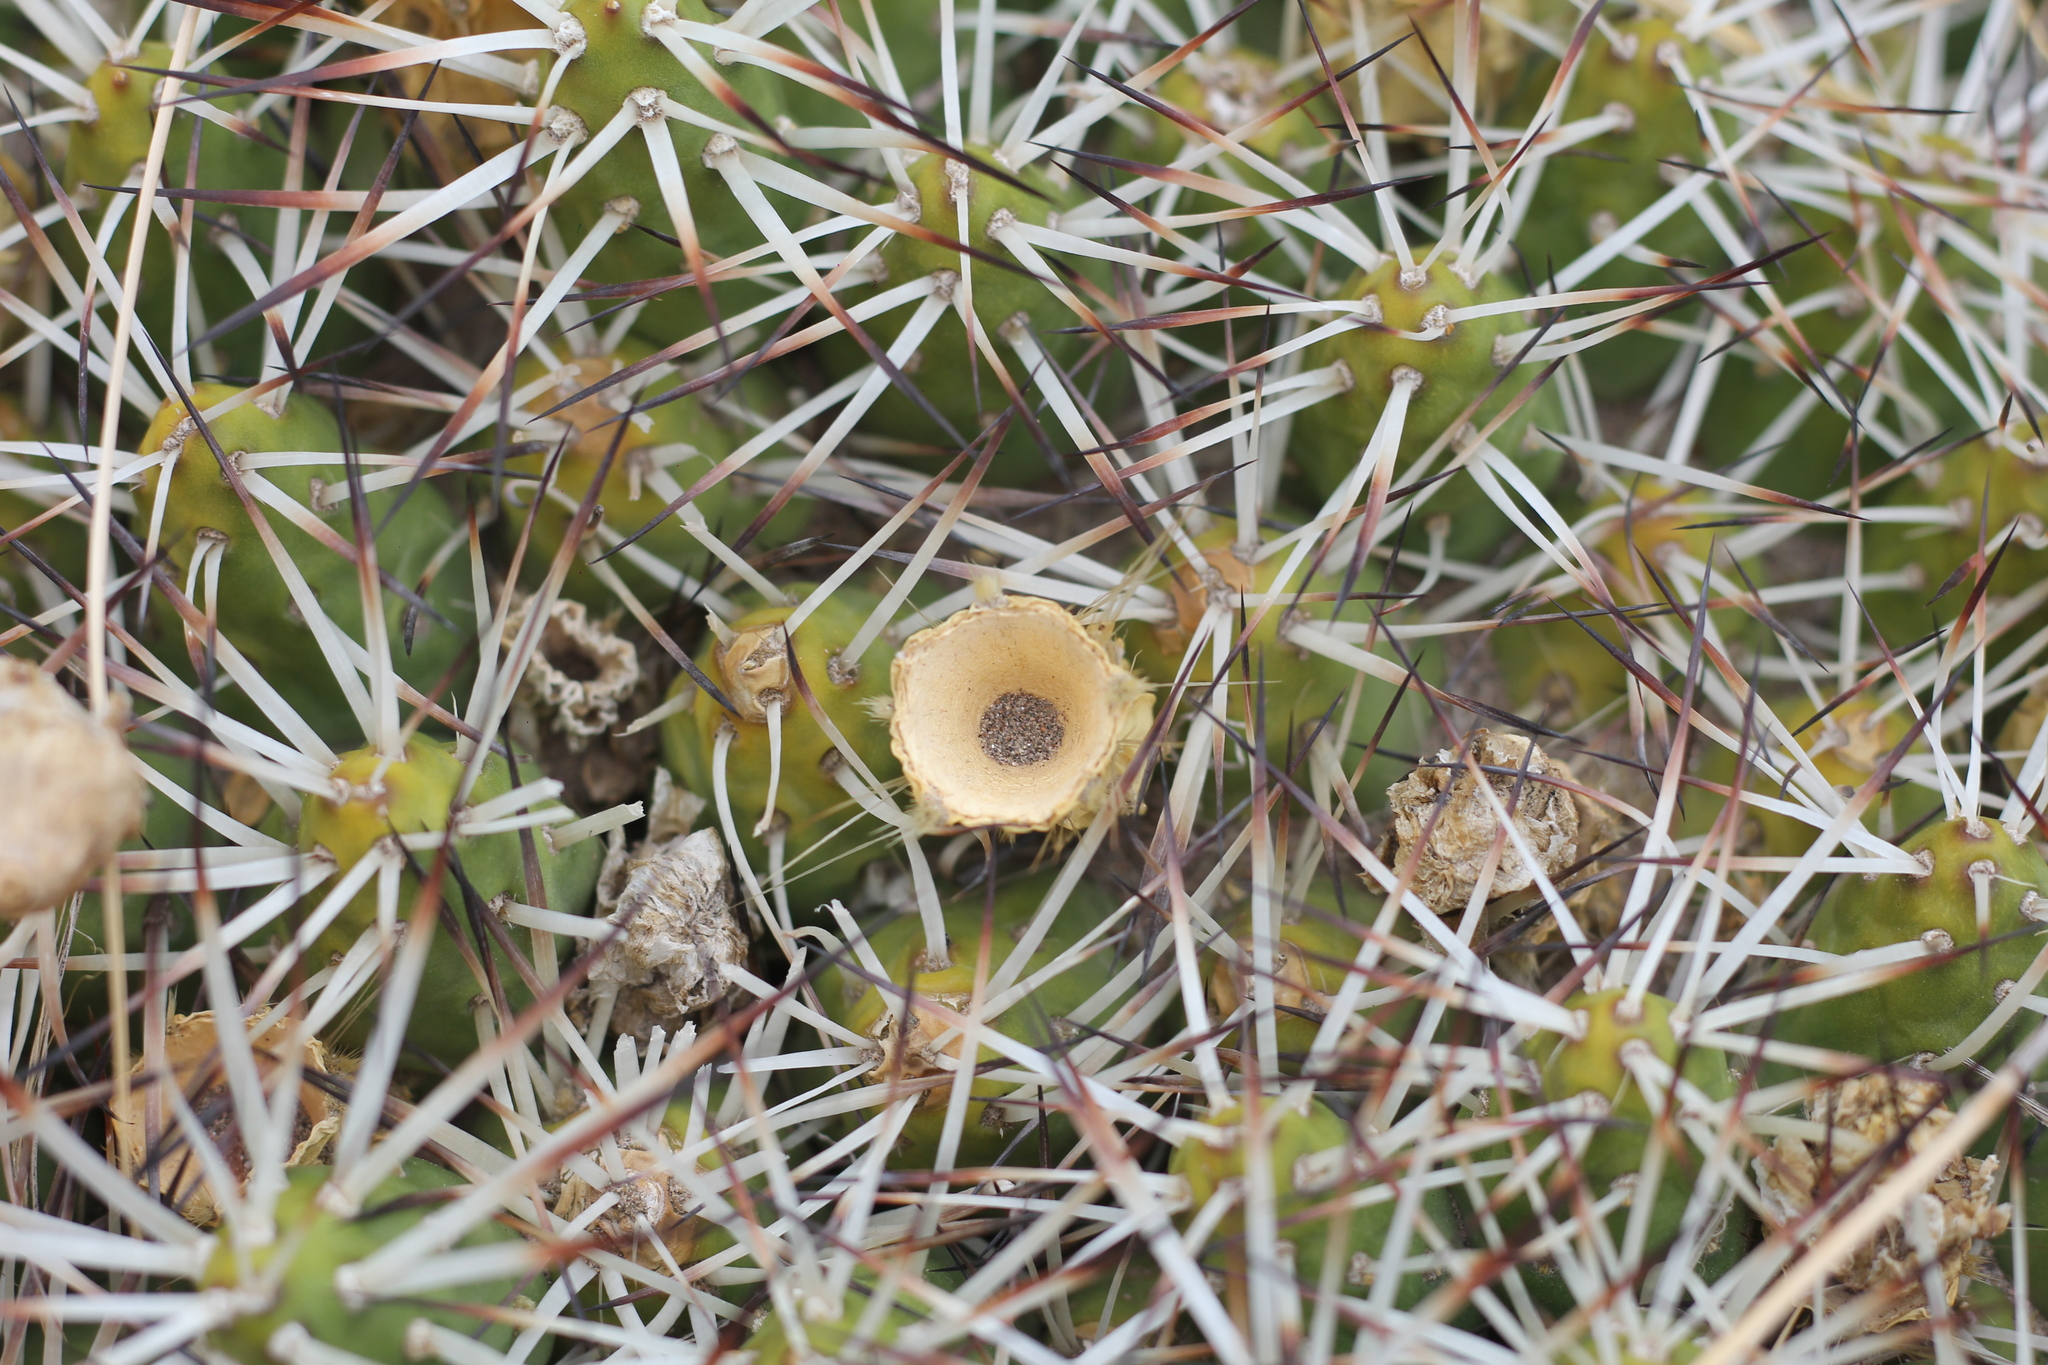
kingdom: Plantae
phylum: Tracheophyta
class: Magnoliopsida
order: Caryophyllales
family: Cactaceae
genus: Maihueniopsis
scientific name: Maihueniopsis glomerata
